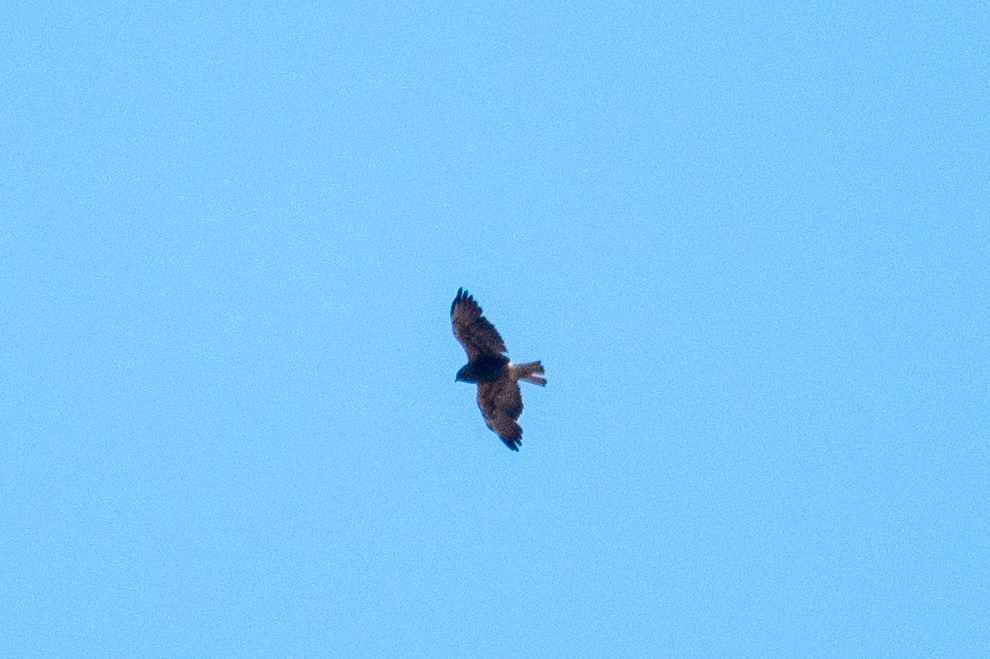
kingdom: Animalia
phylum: Chordata
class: Aves
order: Accipitriformes
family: Accipitridae
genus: Buteo
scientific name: Buteo swainsoni
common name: Swainson's hawk
